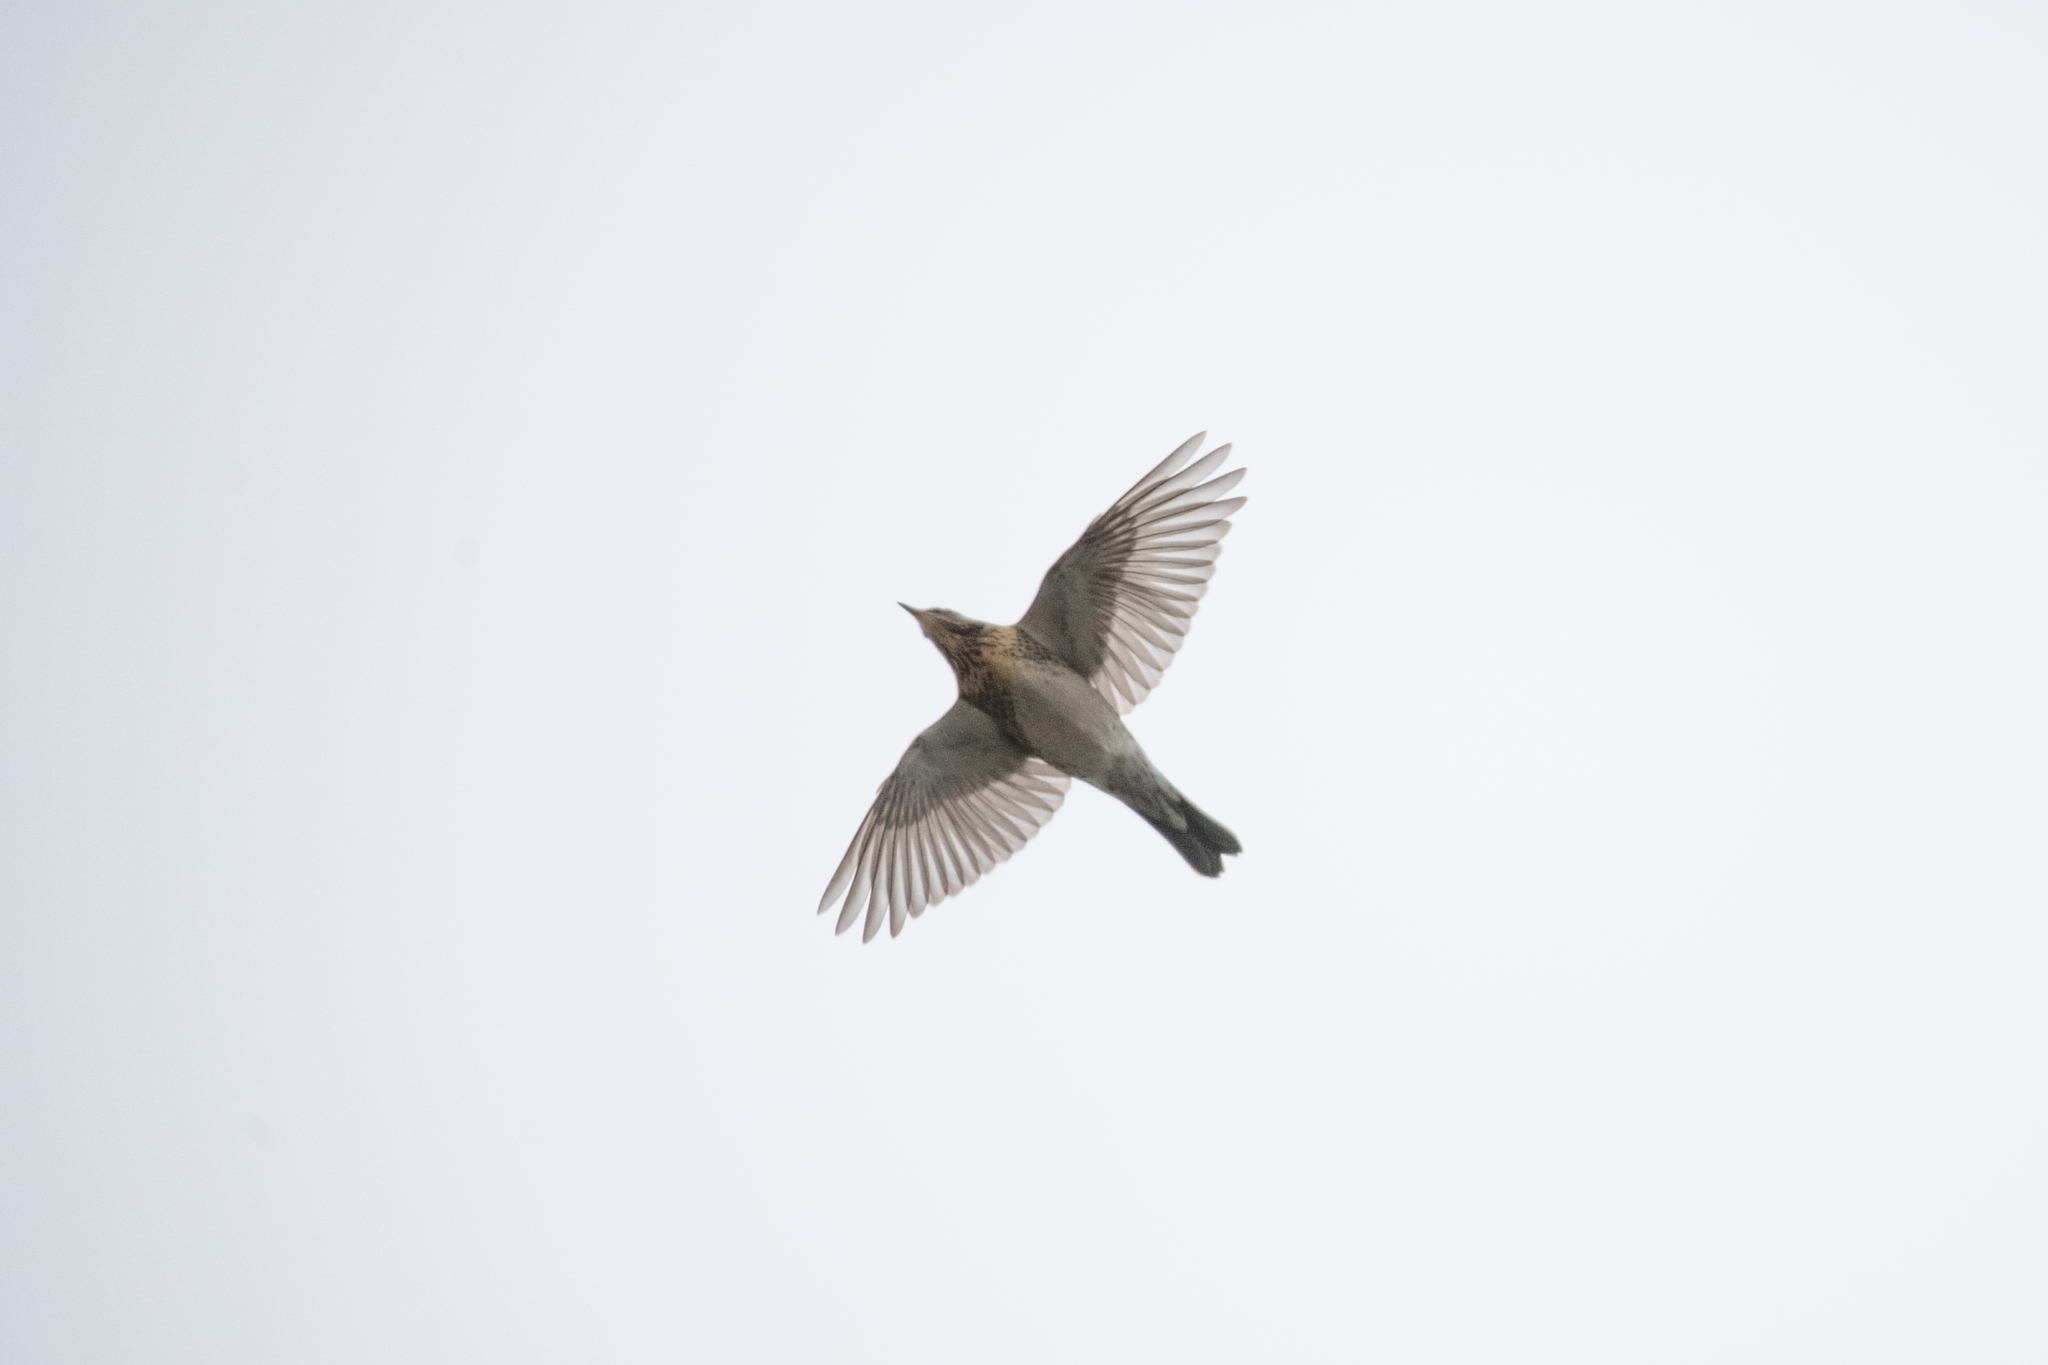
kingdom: Animalia
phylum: Chordata
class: Aves
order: Passeriformes
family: Turdidae
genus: Turdus
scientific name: Turdus pilaris
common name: Fieldfare
